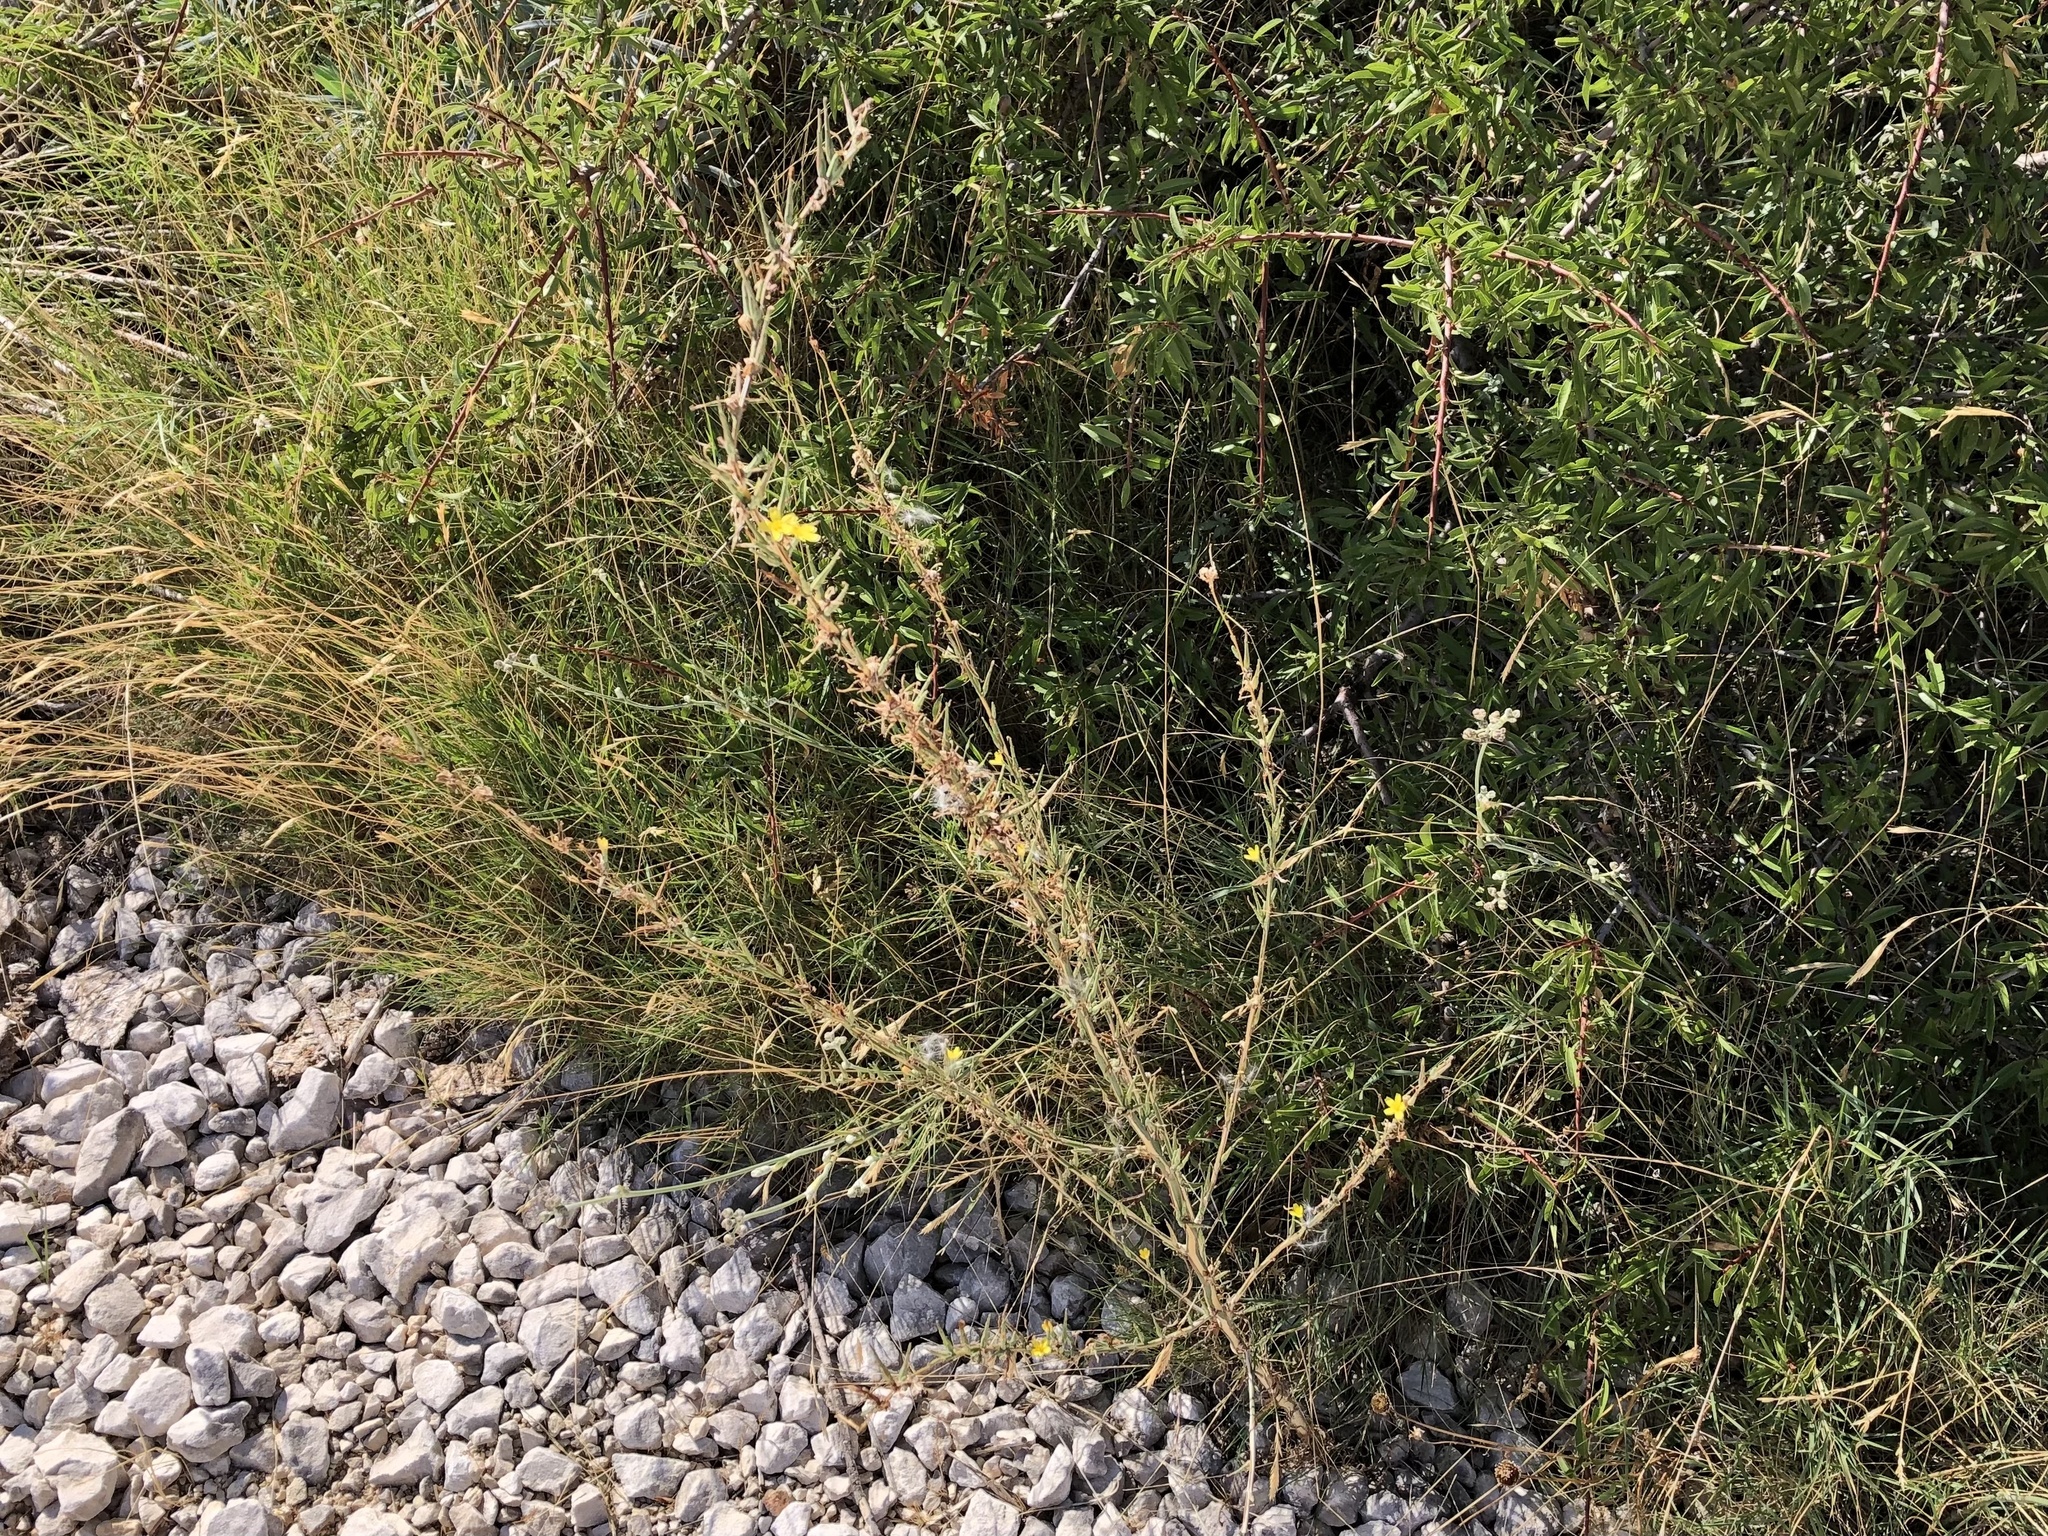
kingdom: Plantae
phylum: Tracheophyta
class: Magnoliopsida
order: Asterales
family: Asteraceae
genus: Lactuca
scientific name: Lactuca viminea
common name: Pliant lettuce
